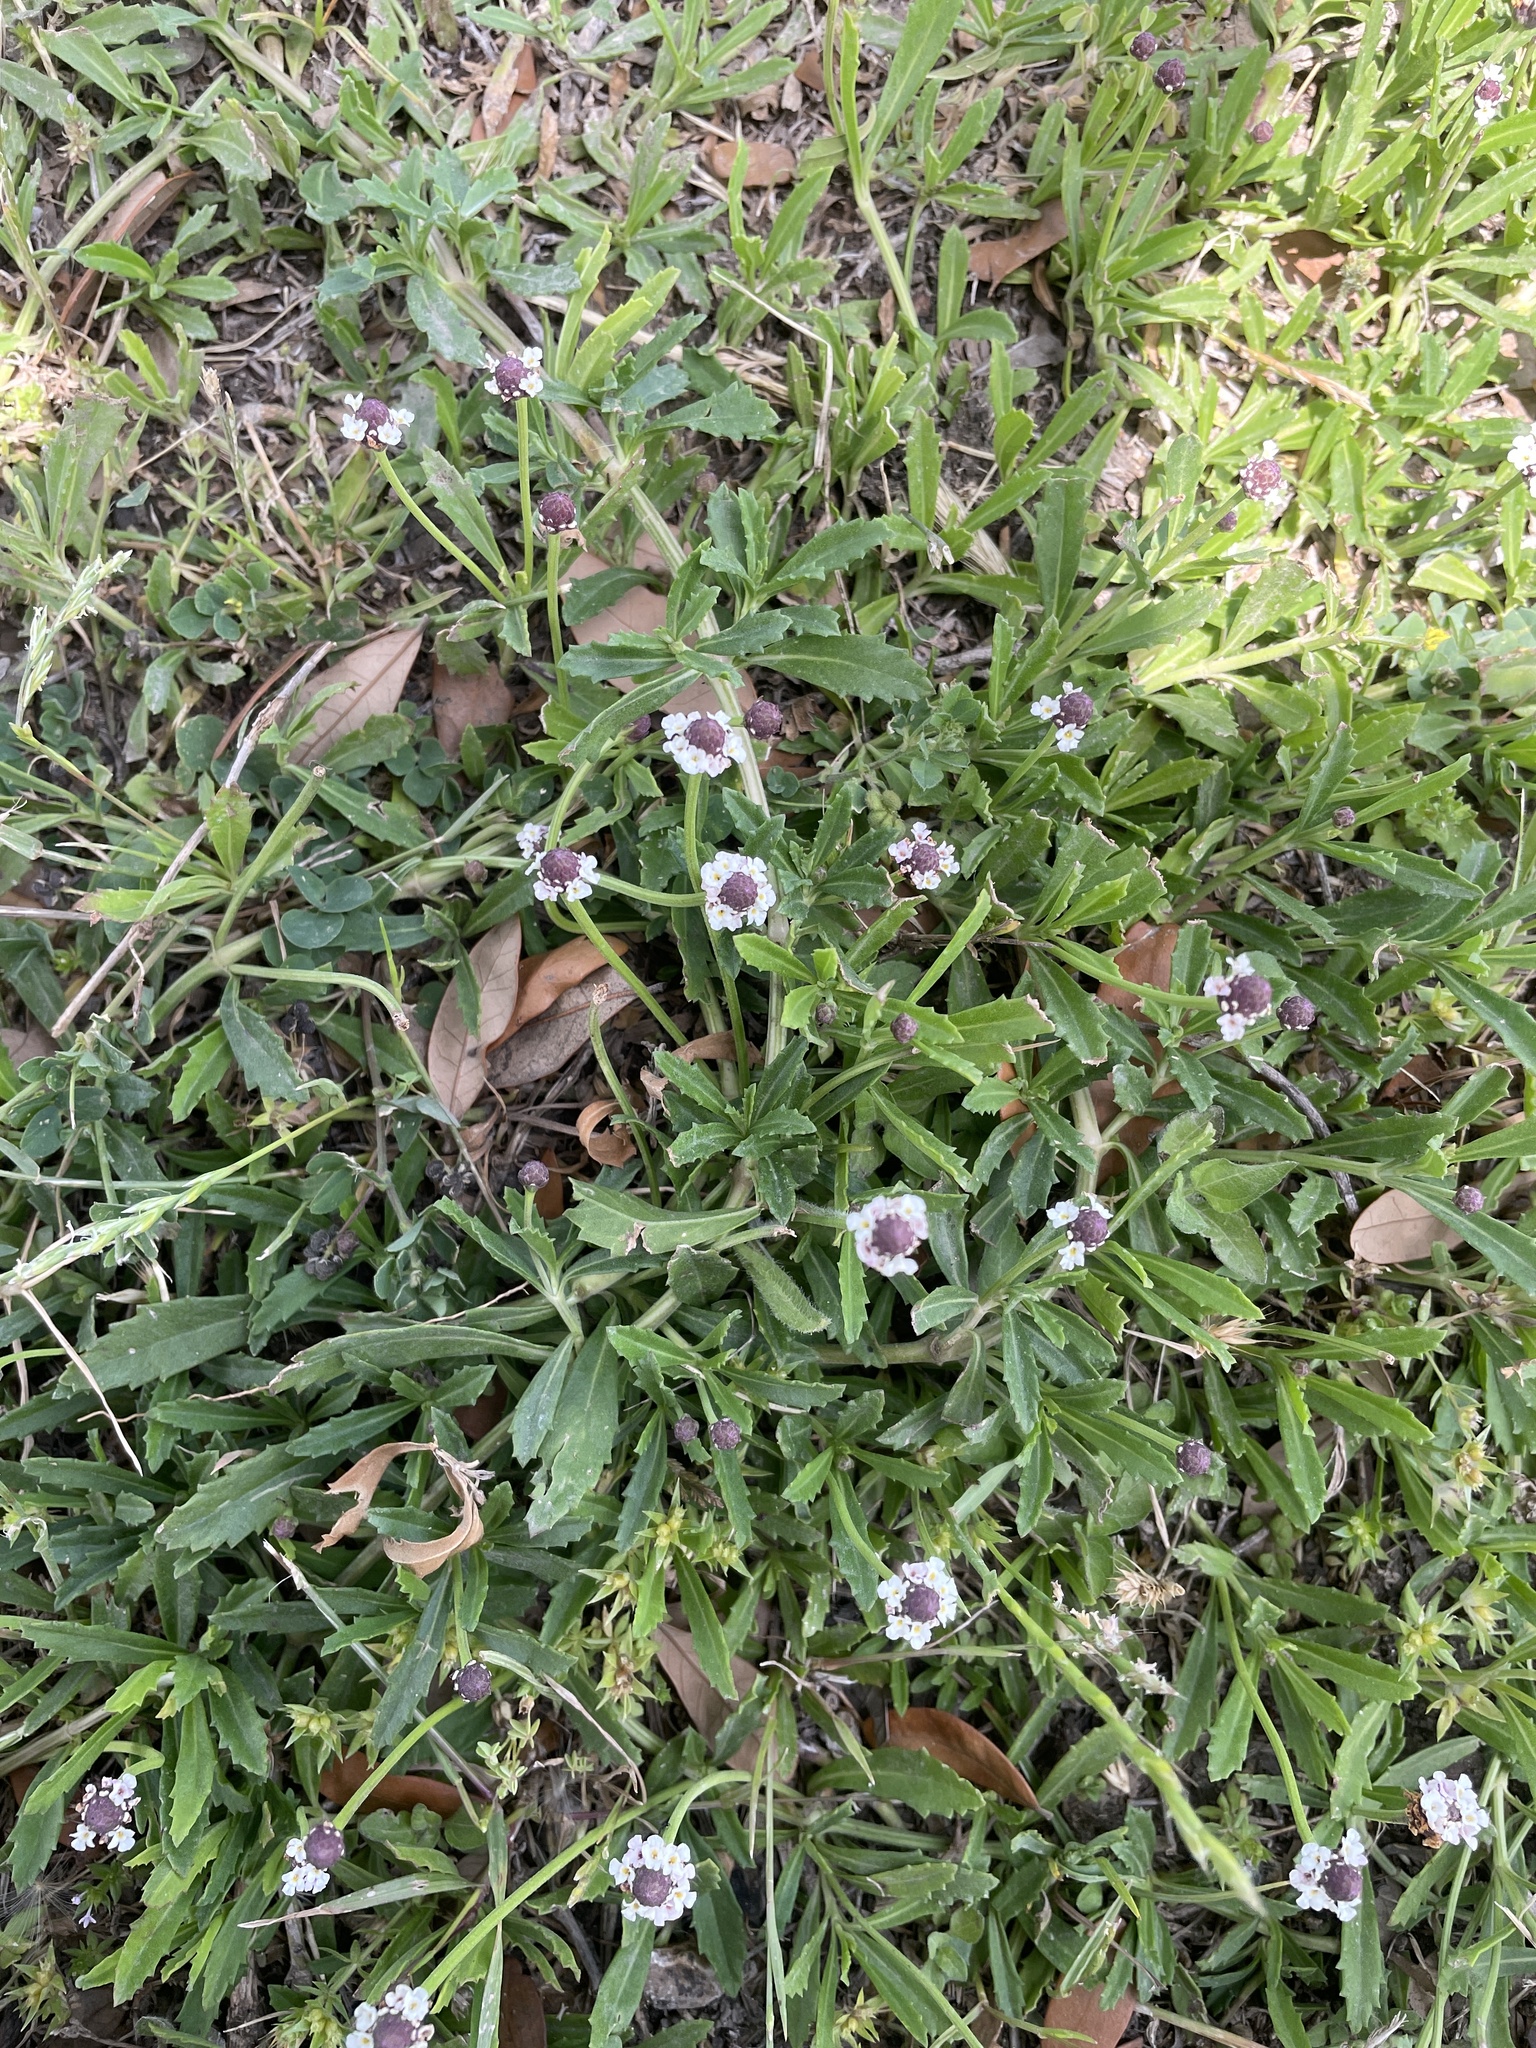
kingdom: Plantae
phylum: Tracheophyta
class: Magnoliopsida
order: Lamiales
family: Verbenaceae
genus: Phyla
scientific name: Phyla nodiflora
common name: Frogfruit
